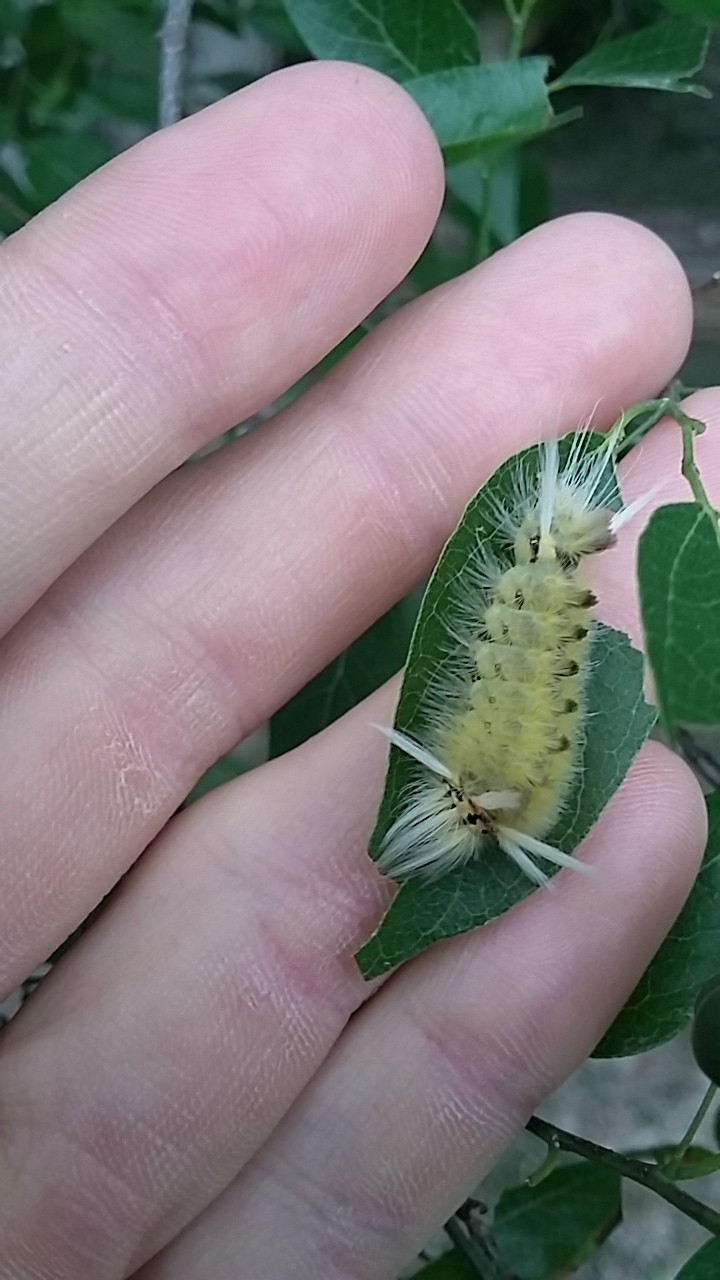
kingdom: Animalia
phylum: Arthropoda
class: Insecta
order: Lepidoptera
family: Erebidae
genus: Halysidota
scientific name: Halysidota schausi
